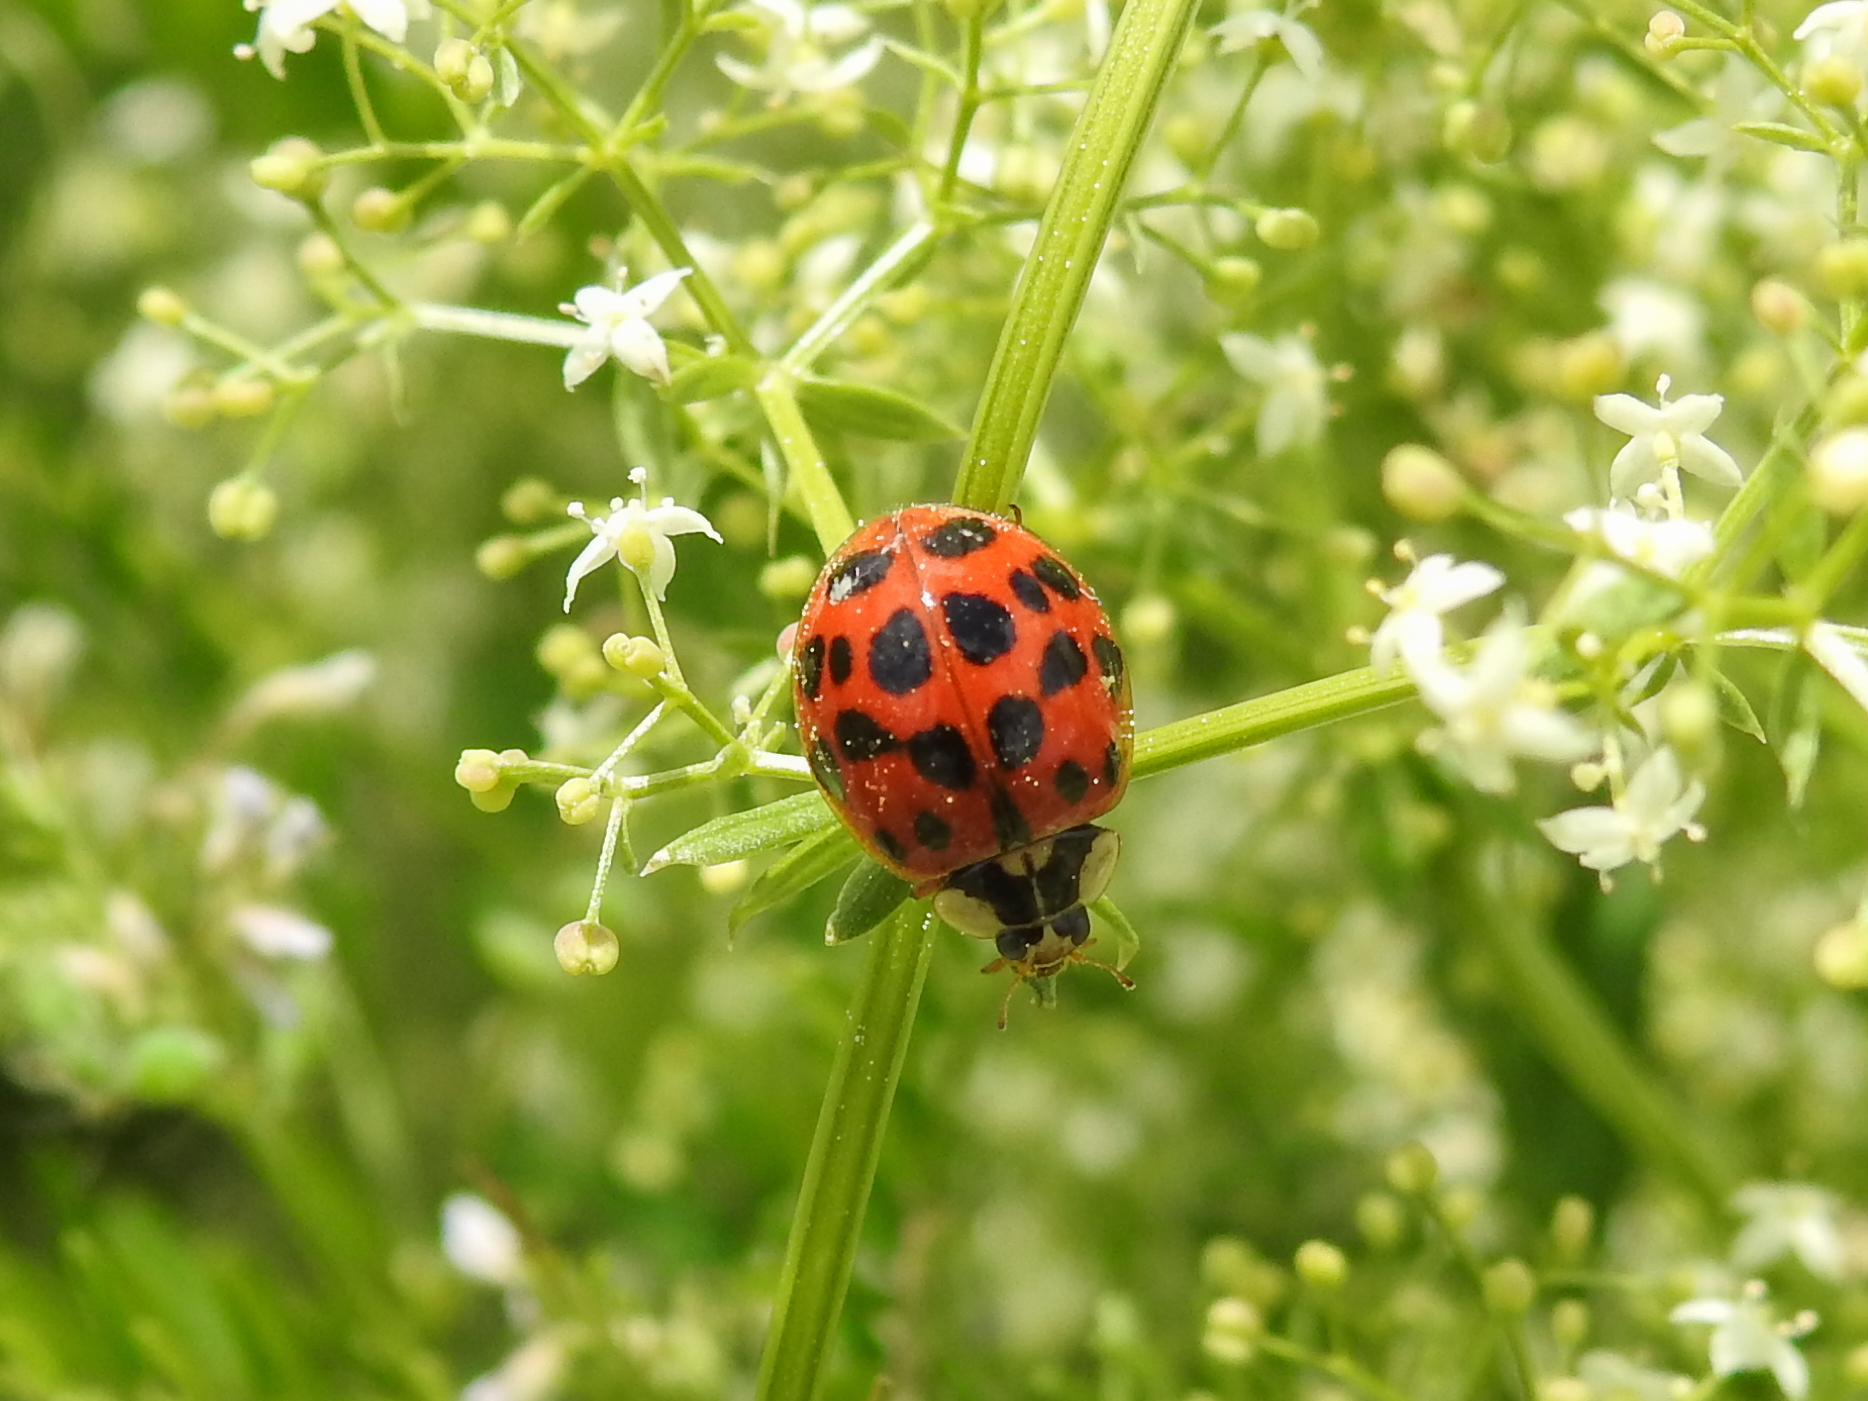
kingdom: Animalia
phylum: Arthropoda
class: Insecta
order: Coleoptera
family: Coccinellidae
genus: Harmonia
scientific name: Harmonia axyridis
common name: Harlequin ladybird
